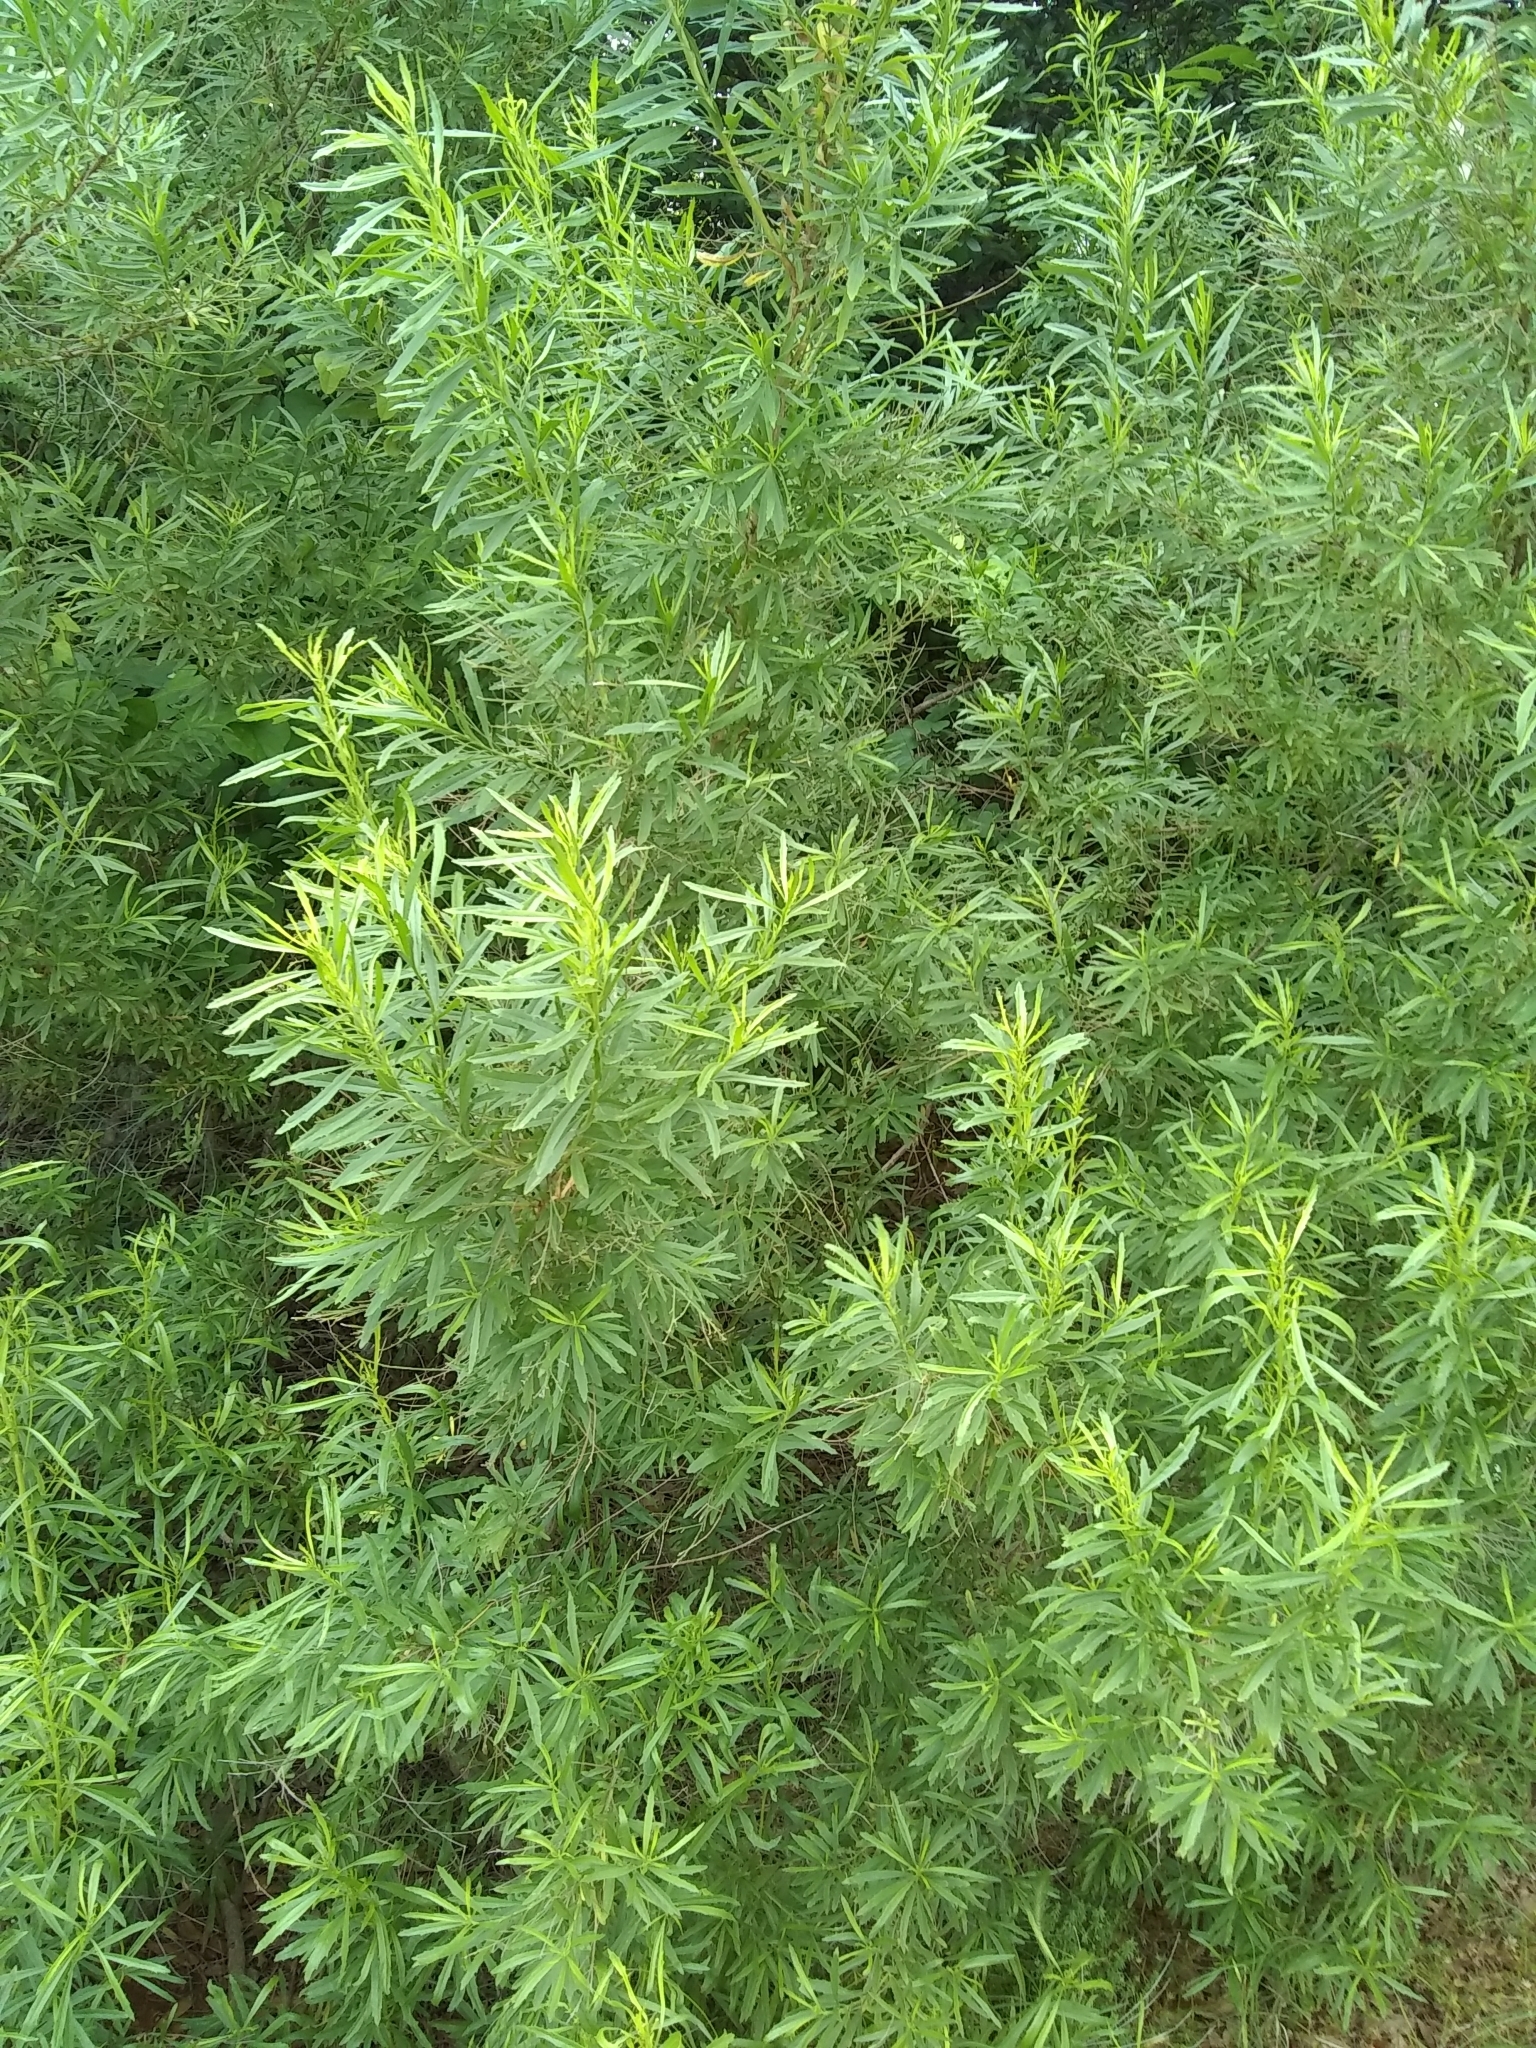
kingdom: Plantae
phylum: Tracheophyta
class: Magnoliopsida
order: Asterales
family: Asteraceae
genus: Baccharis
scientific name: Baccharis neglecta
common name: Roosevelt-weed
